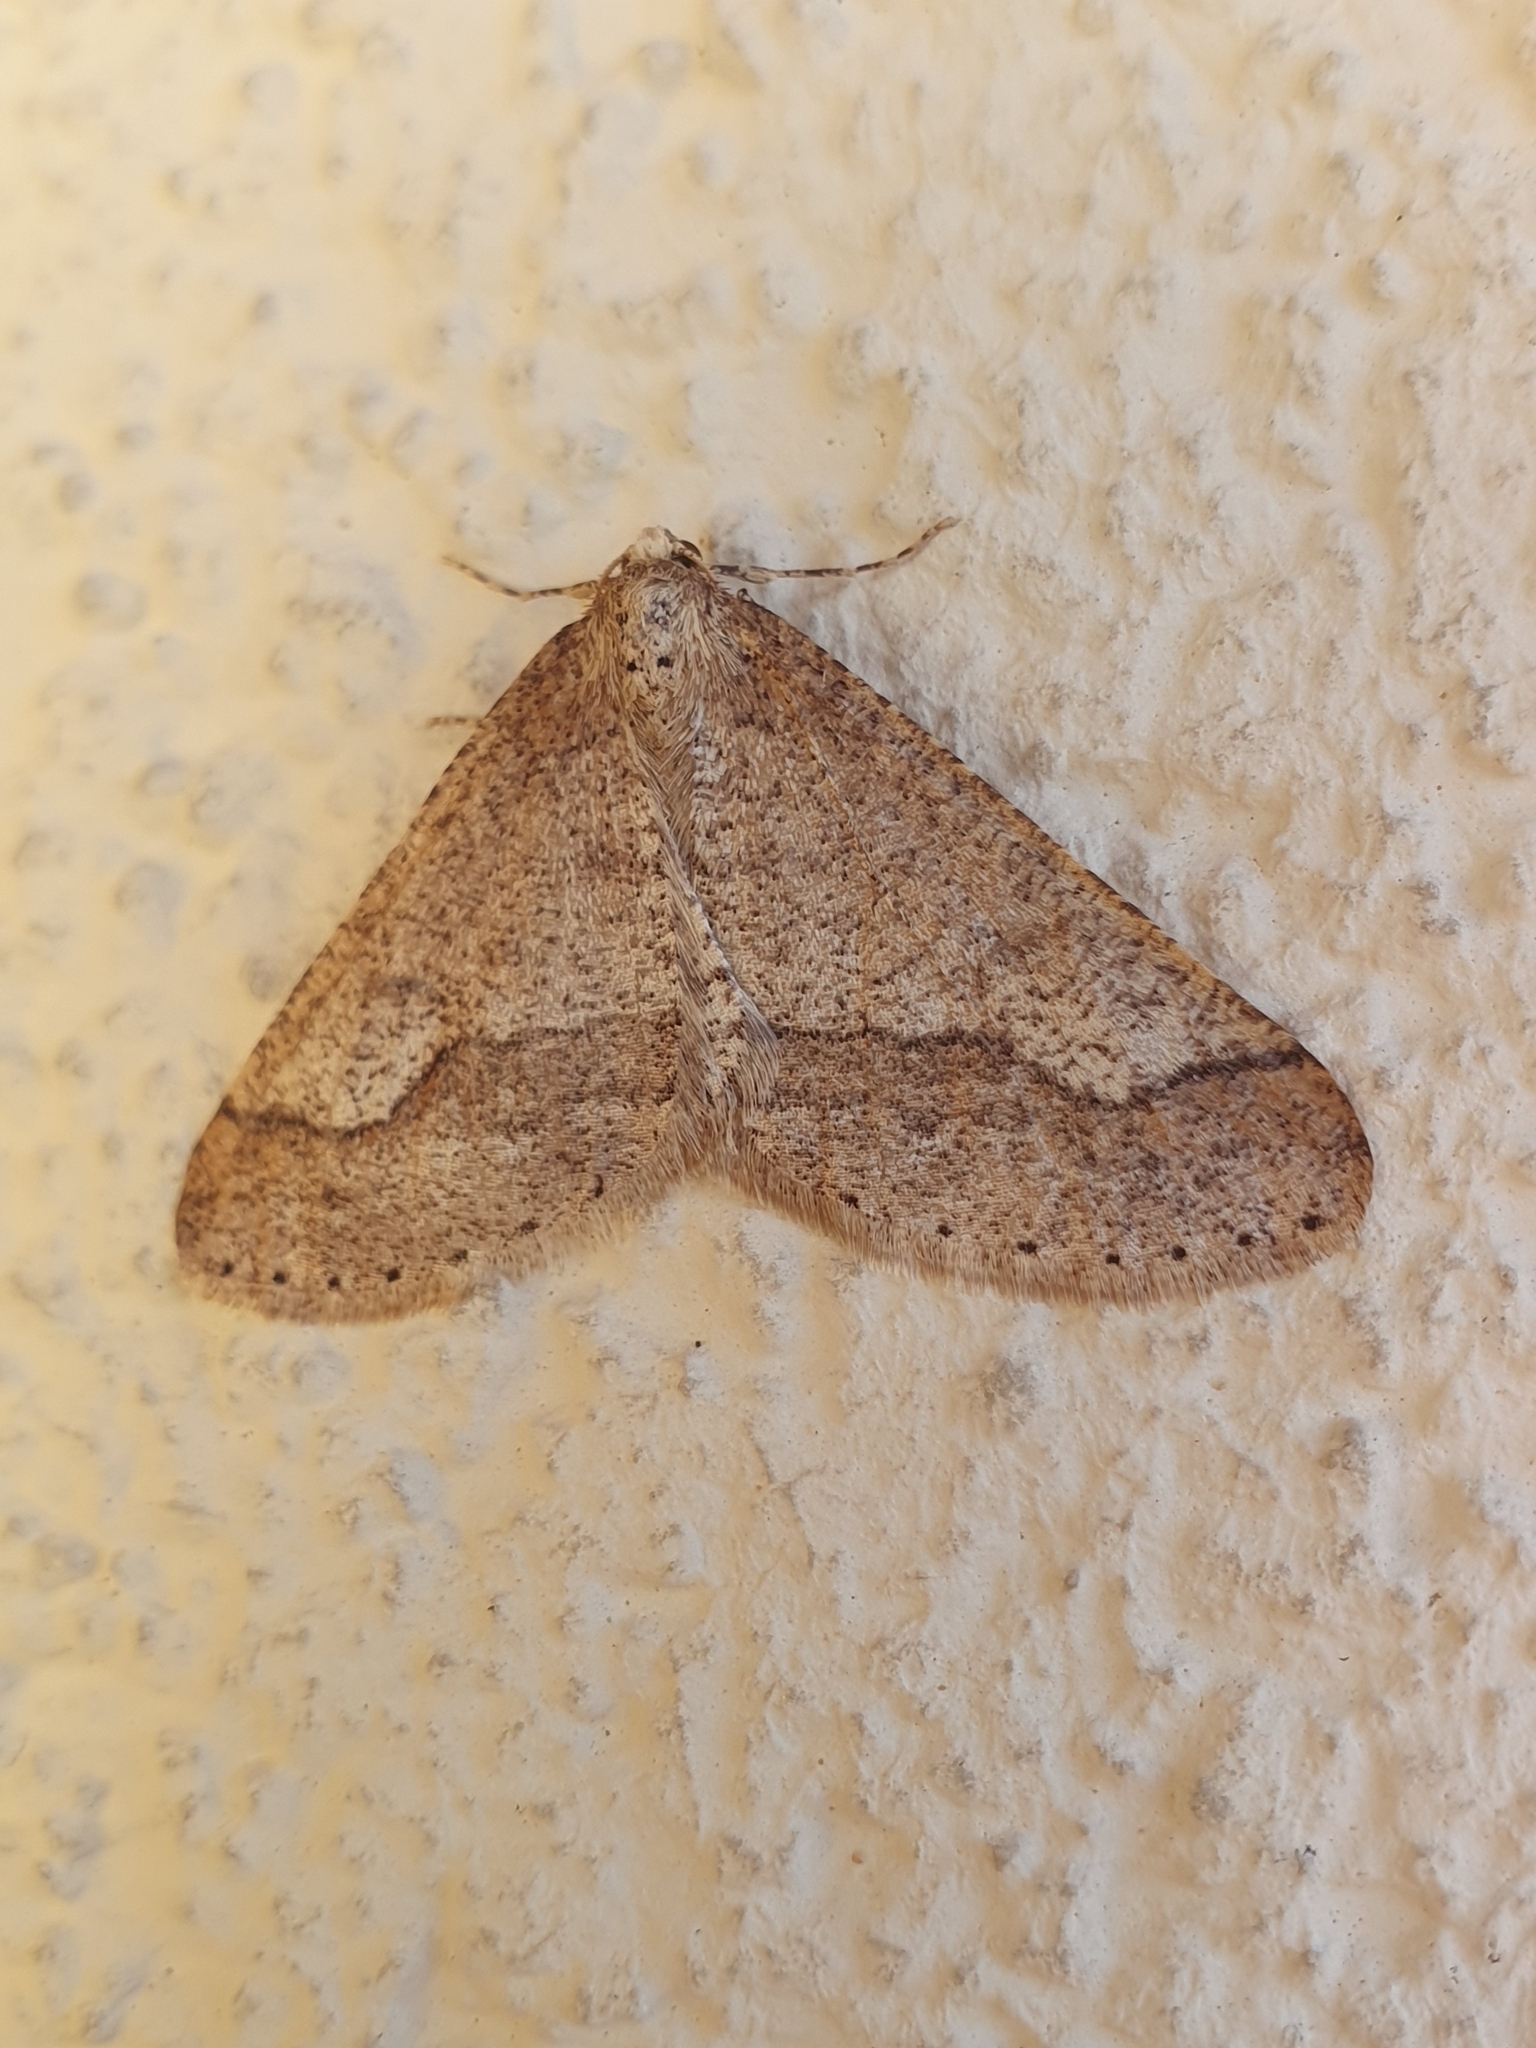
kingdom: Animalia
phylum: Arthropoda
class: Insecta
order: Lepidoptera
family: Geometridae
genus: Agriopis
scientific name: Agriopis marginaria
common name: Dotted border
